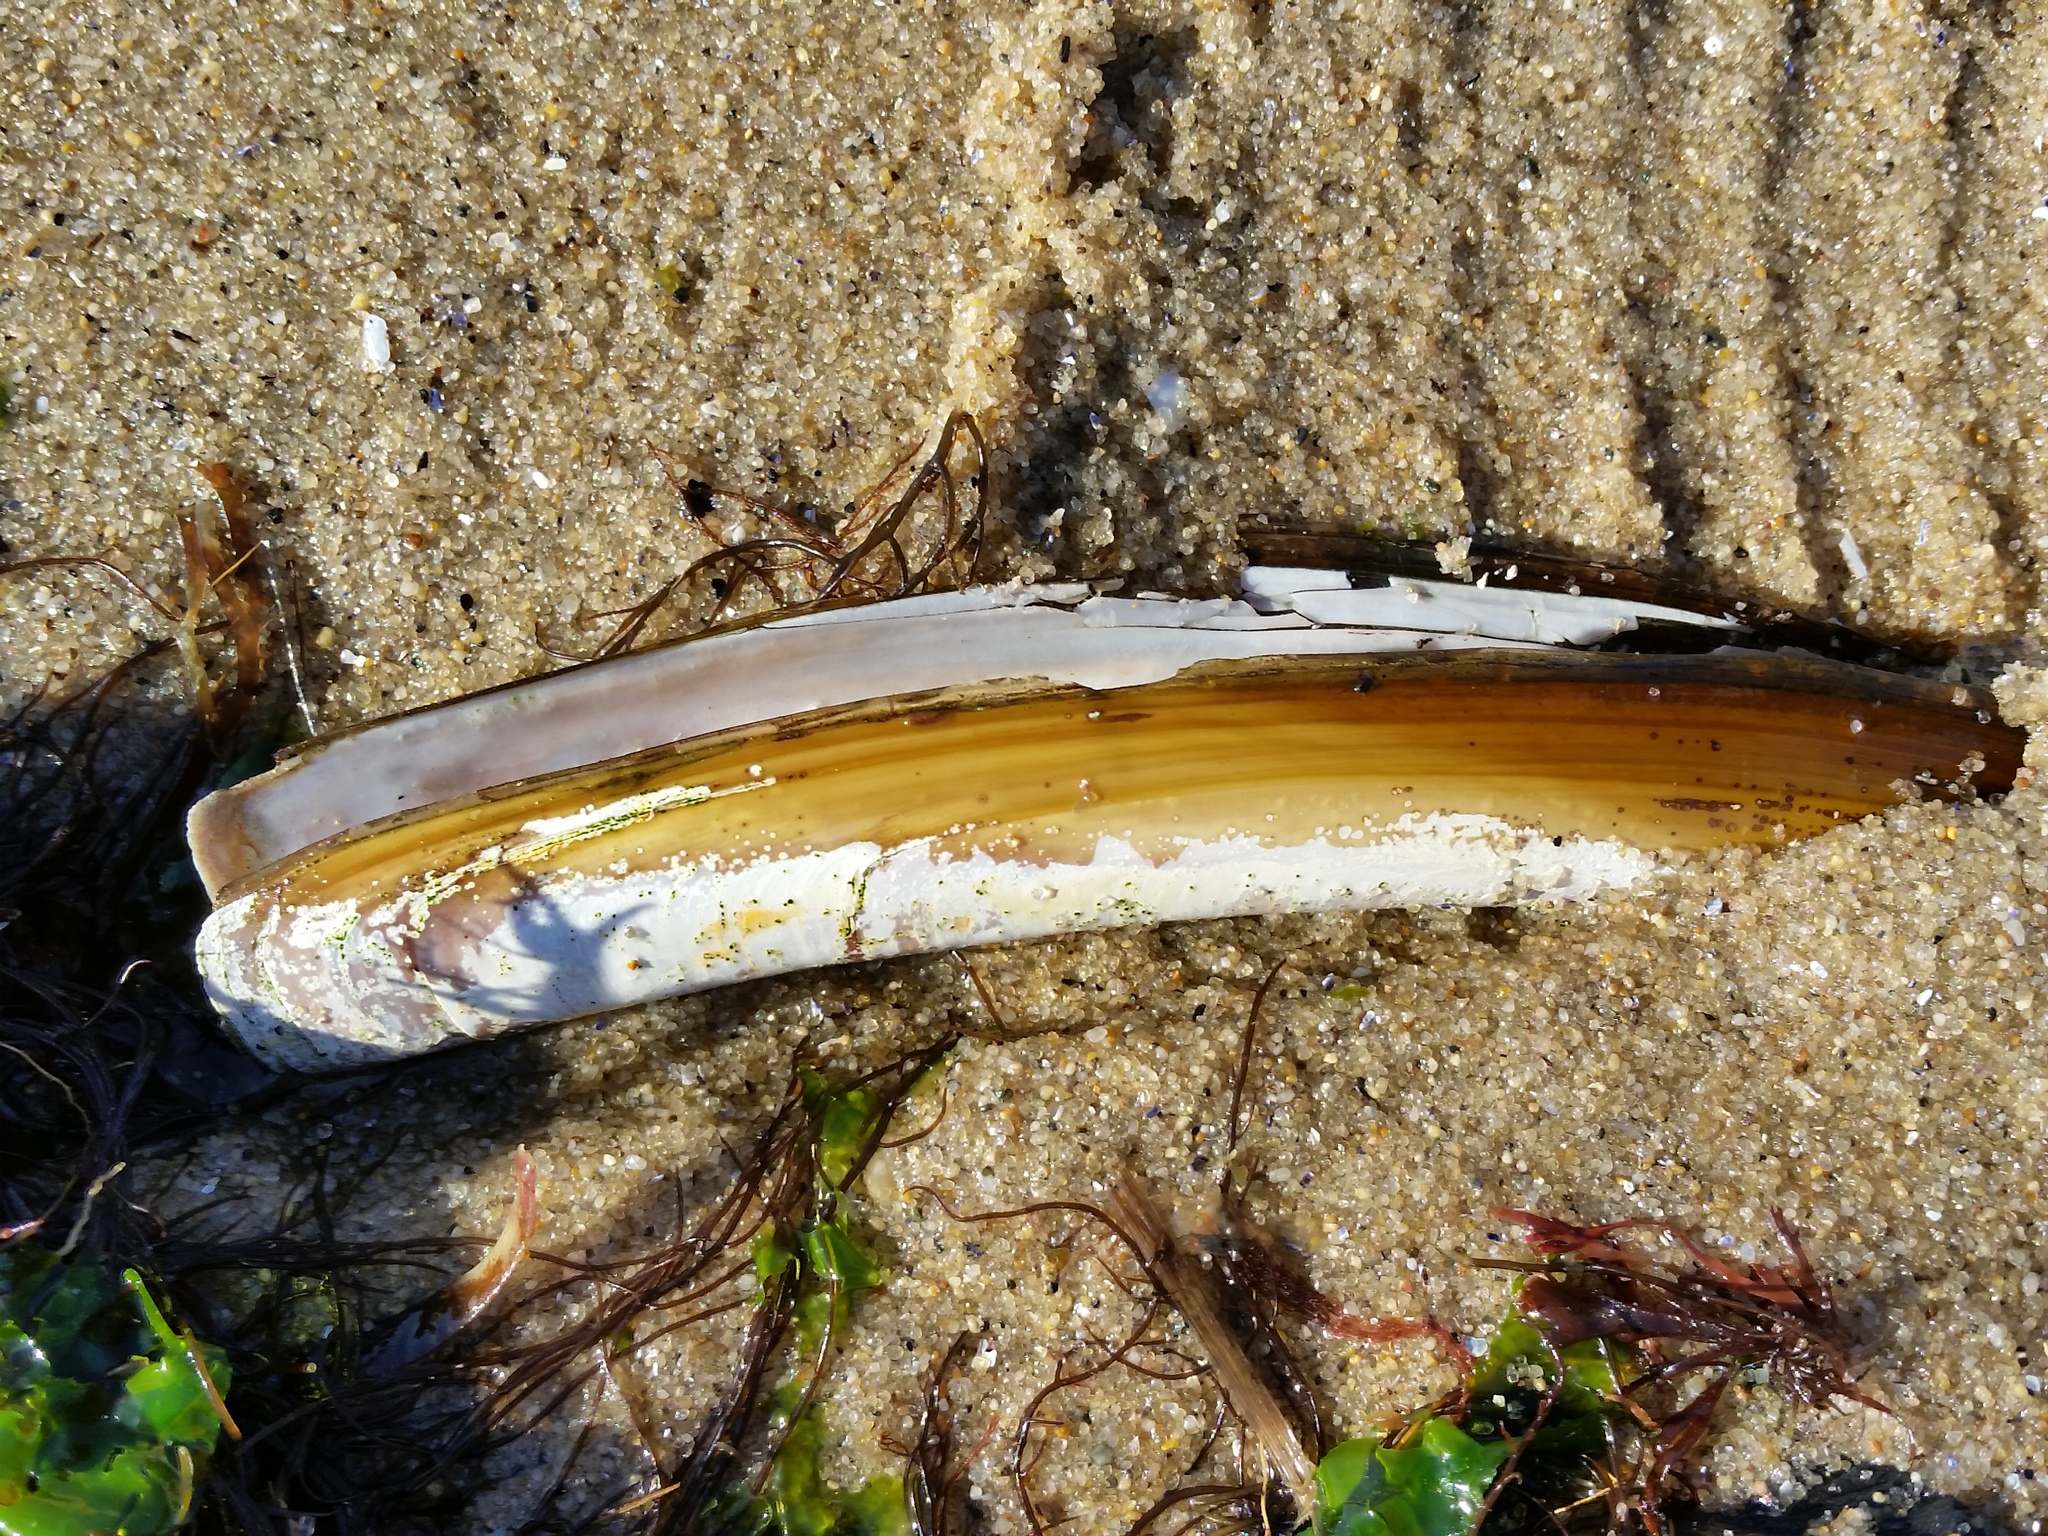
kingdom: Animalia
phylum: Mollusca
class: Bivalvia
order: Adapedonta
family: Pharidae
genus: Ensis
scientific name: Ensis leei
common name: American jack knife clam
